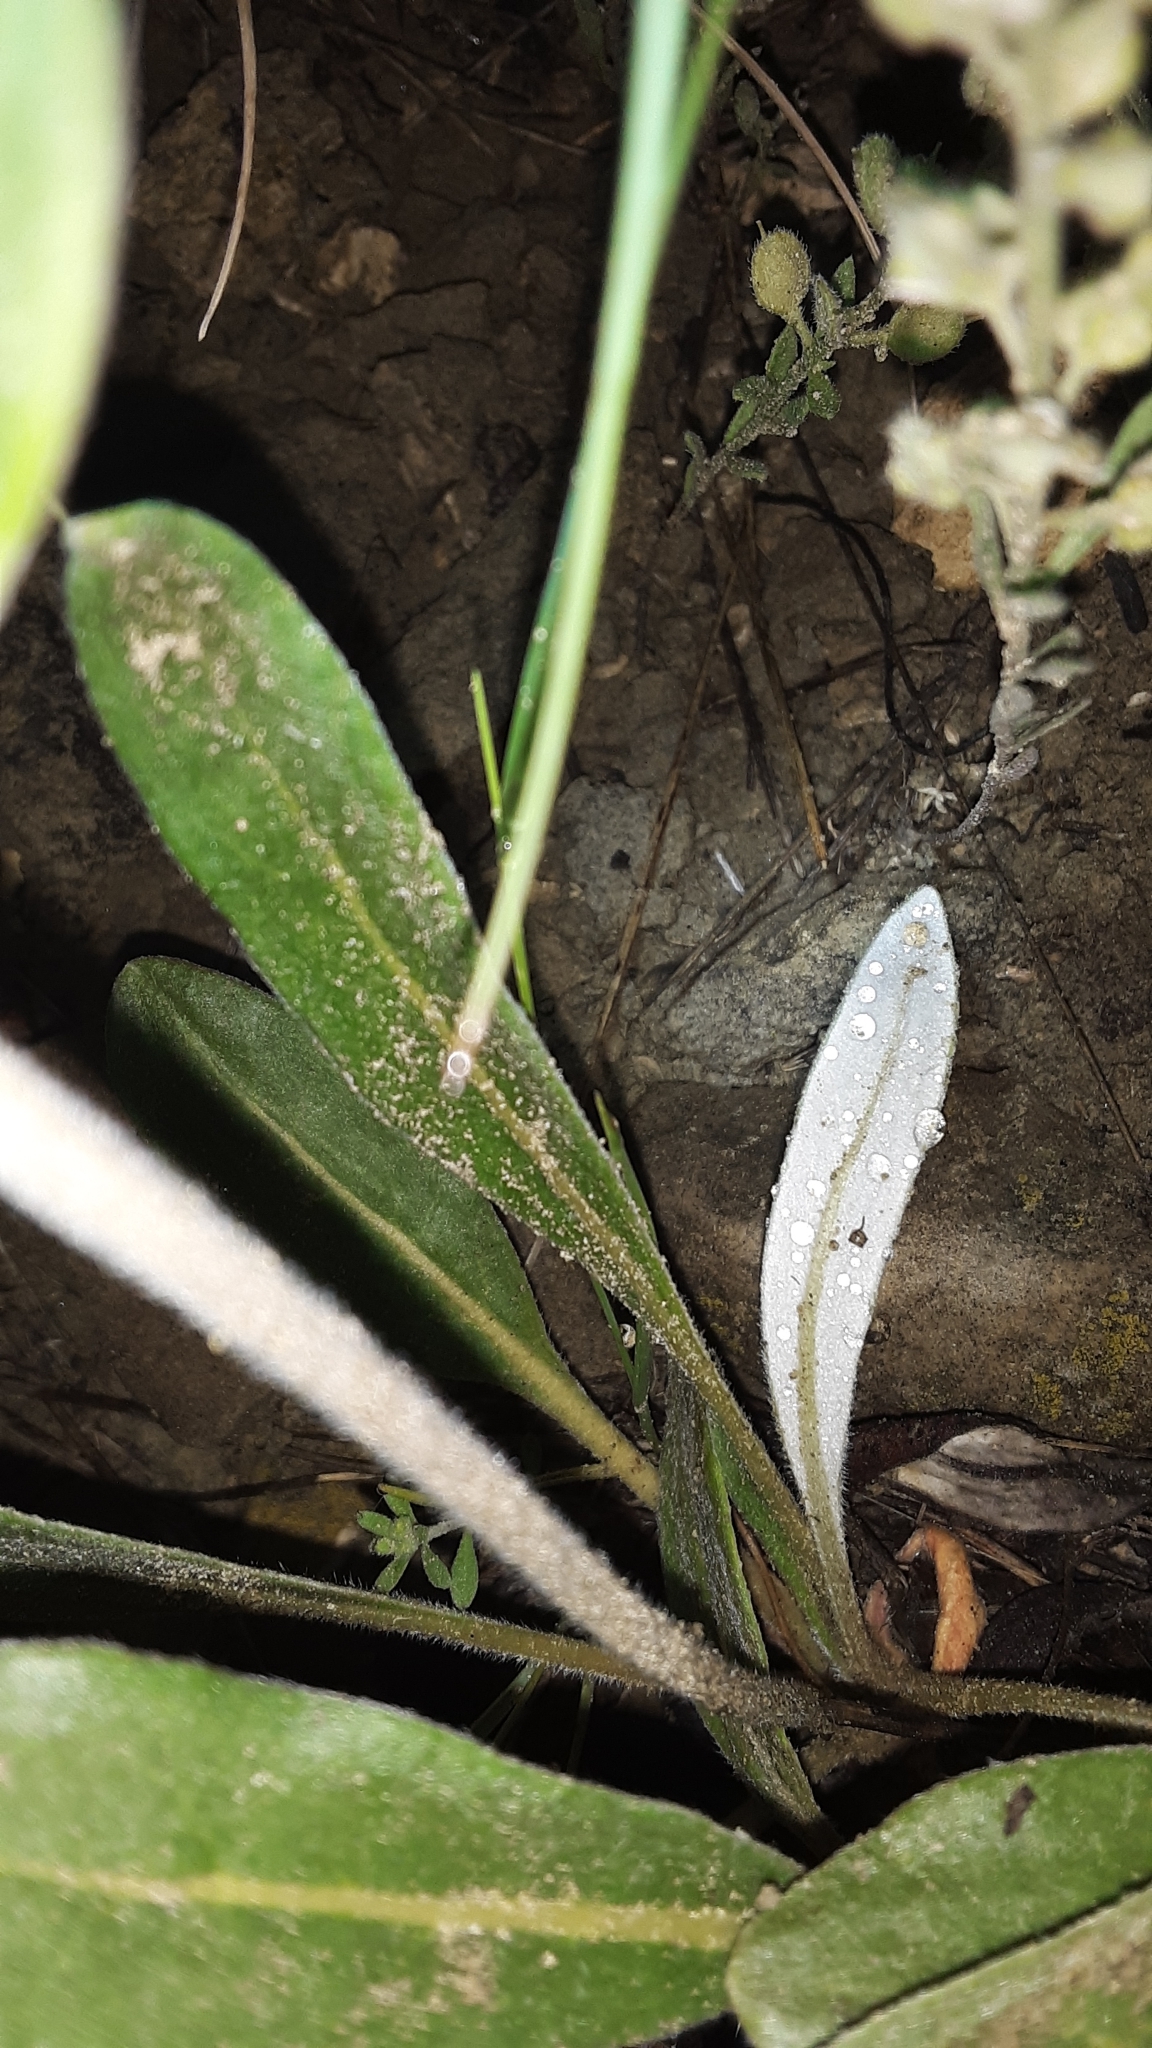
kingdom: Plantae
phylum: Tracheophyta
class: Magnoliopsida
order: Caryophyllales
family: Polygonaceae
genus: Eriogonum
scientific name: Eriogonum flavum
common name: Alpine golden wild buckwheat
